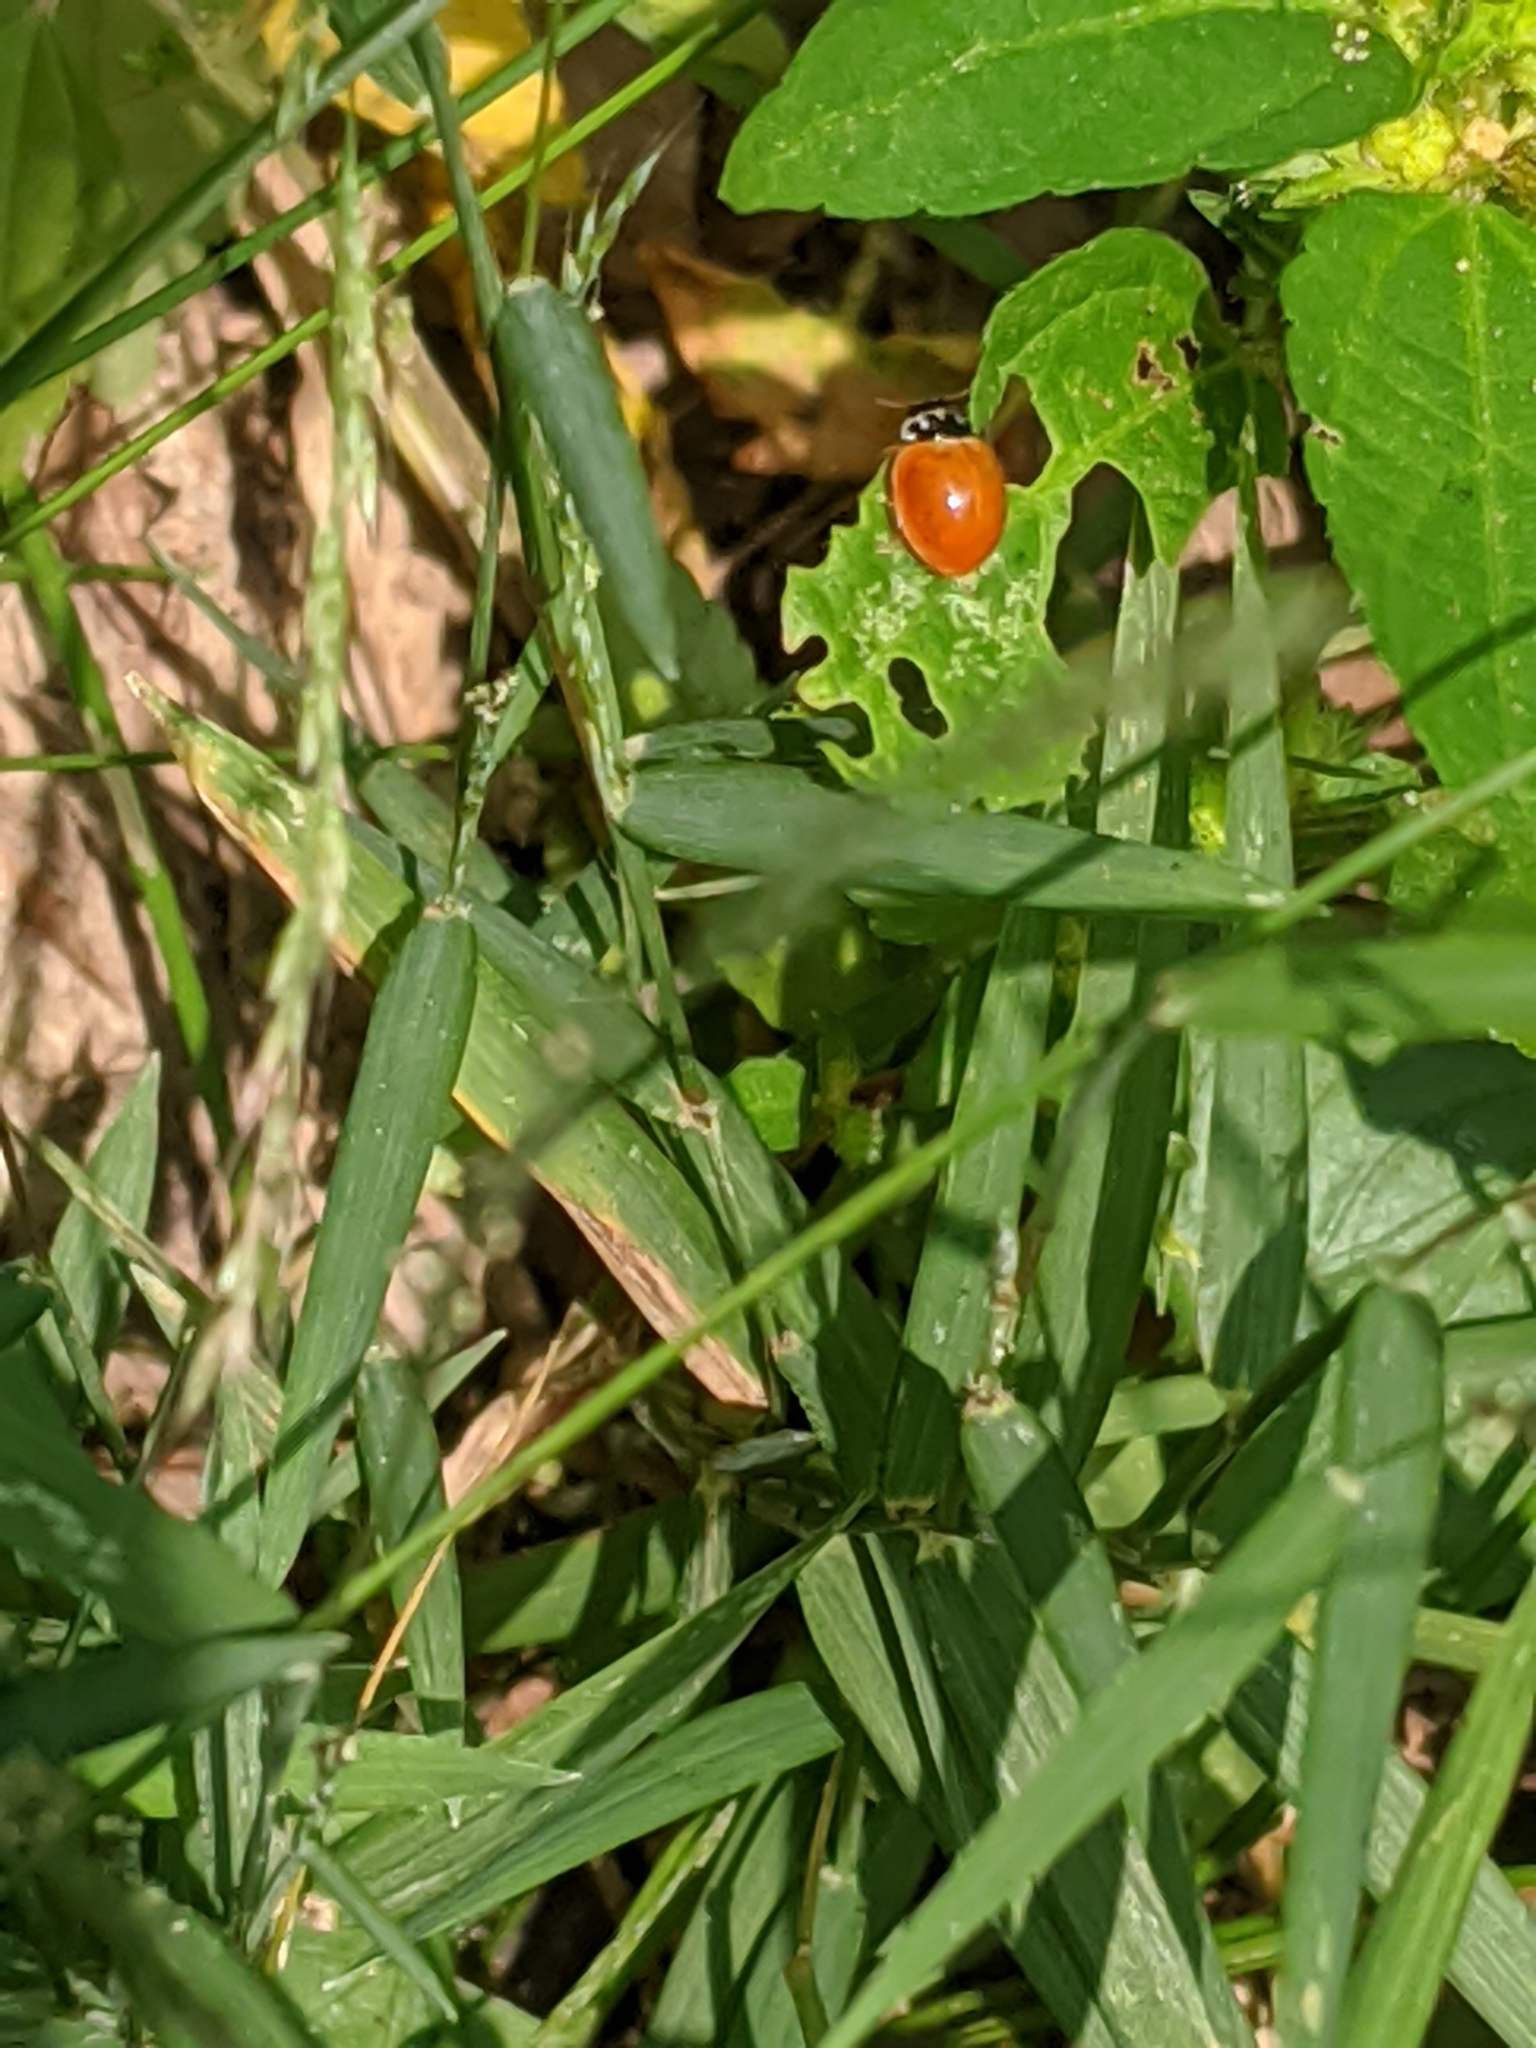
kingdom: Animalia
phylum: Arthropoda
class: Insecta
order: Coleoptera
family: Coccinellidae
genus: Cycloneda
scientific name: Cycloneda munda
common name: Polished lady beetle
